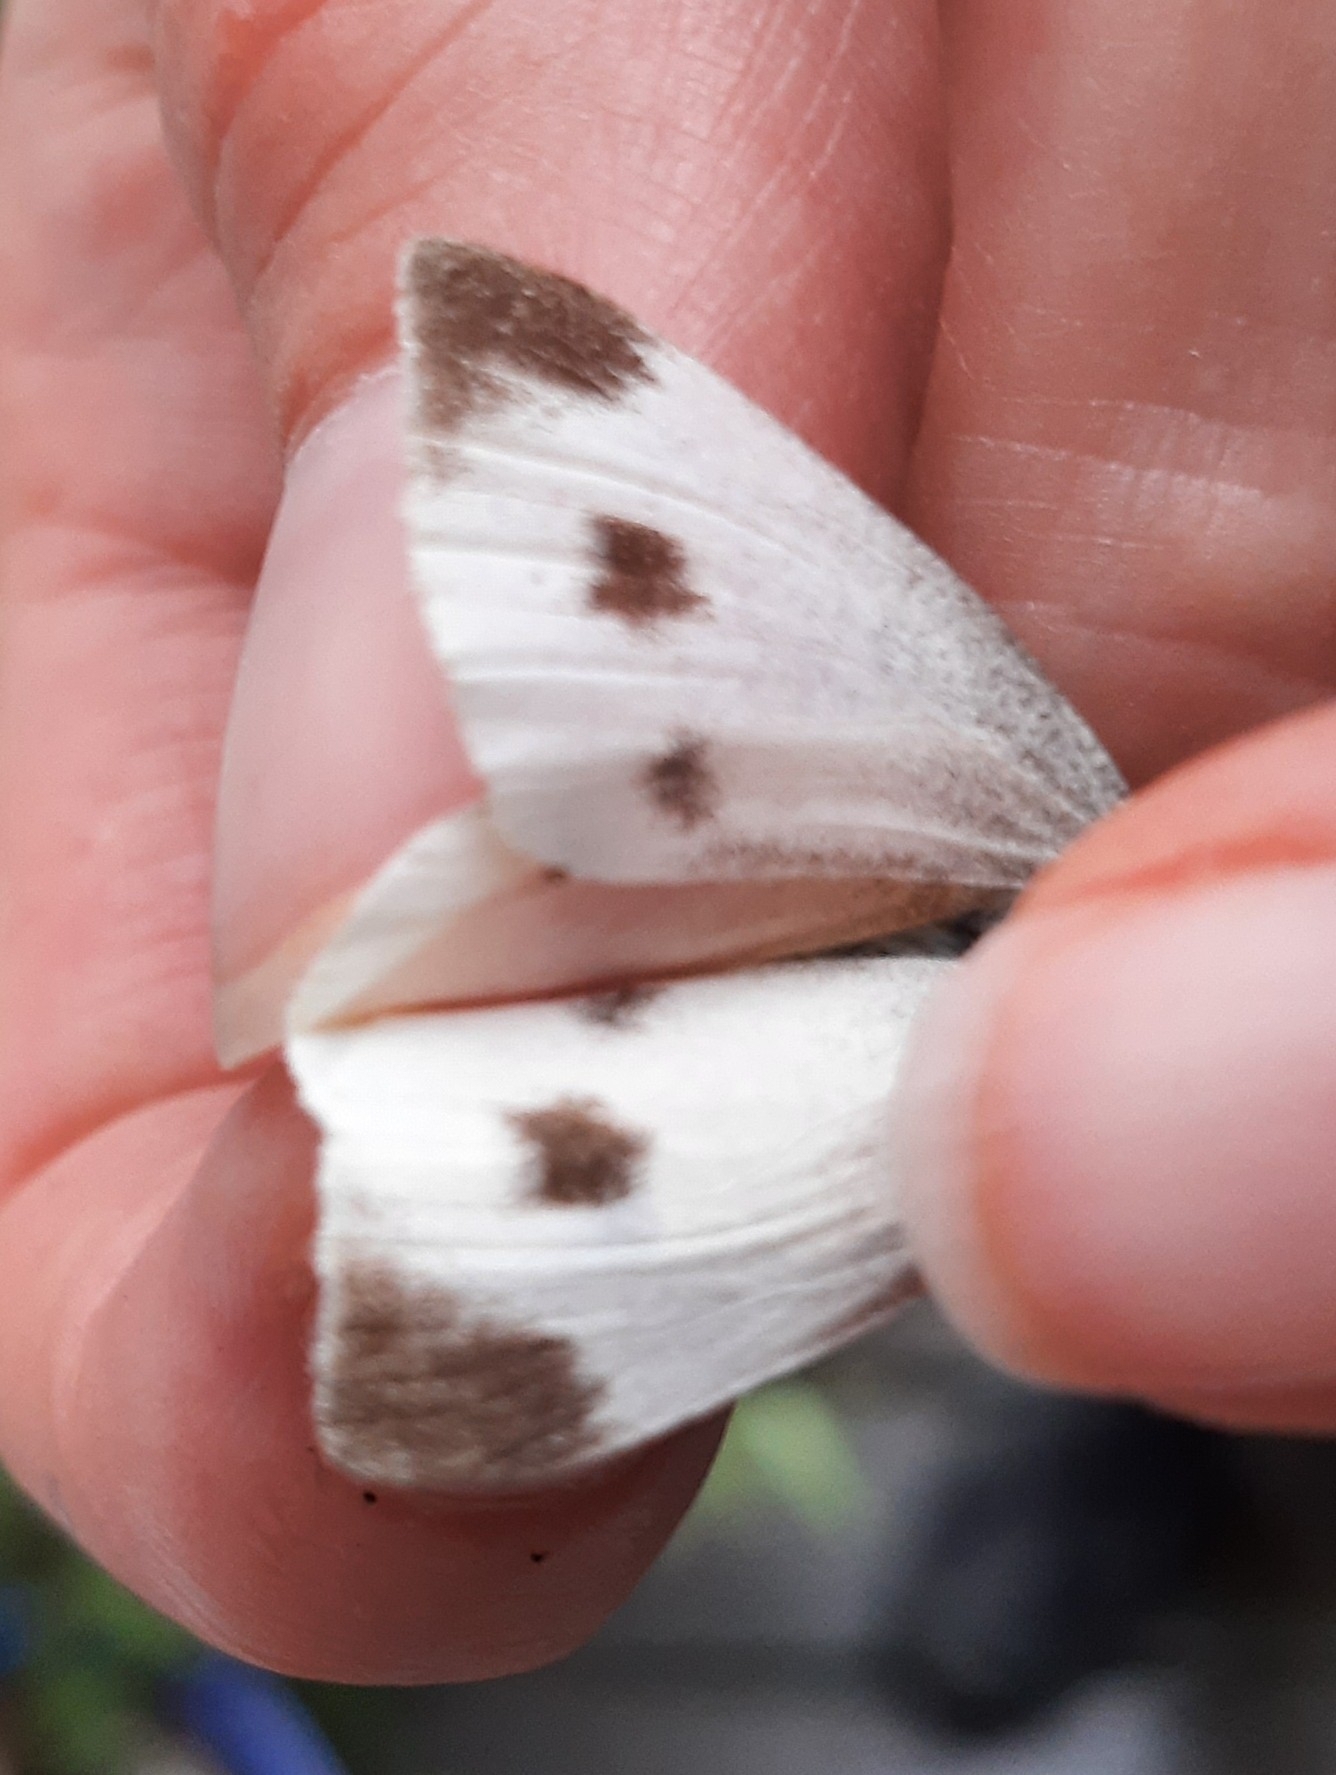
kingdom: Animalia
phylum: Arthropoda
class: Insecta
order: Lepidoptera
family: Pieridae
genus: Pieris
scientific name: Pieris mannii
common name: Southern small white
